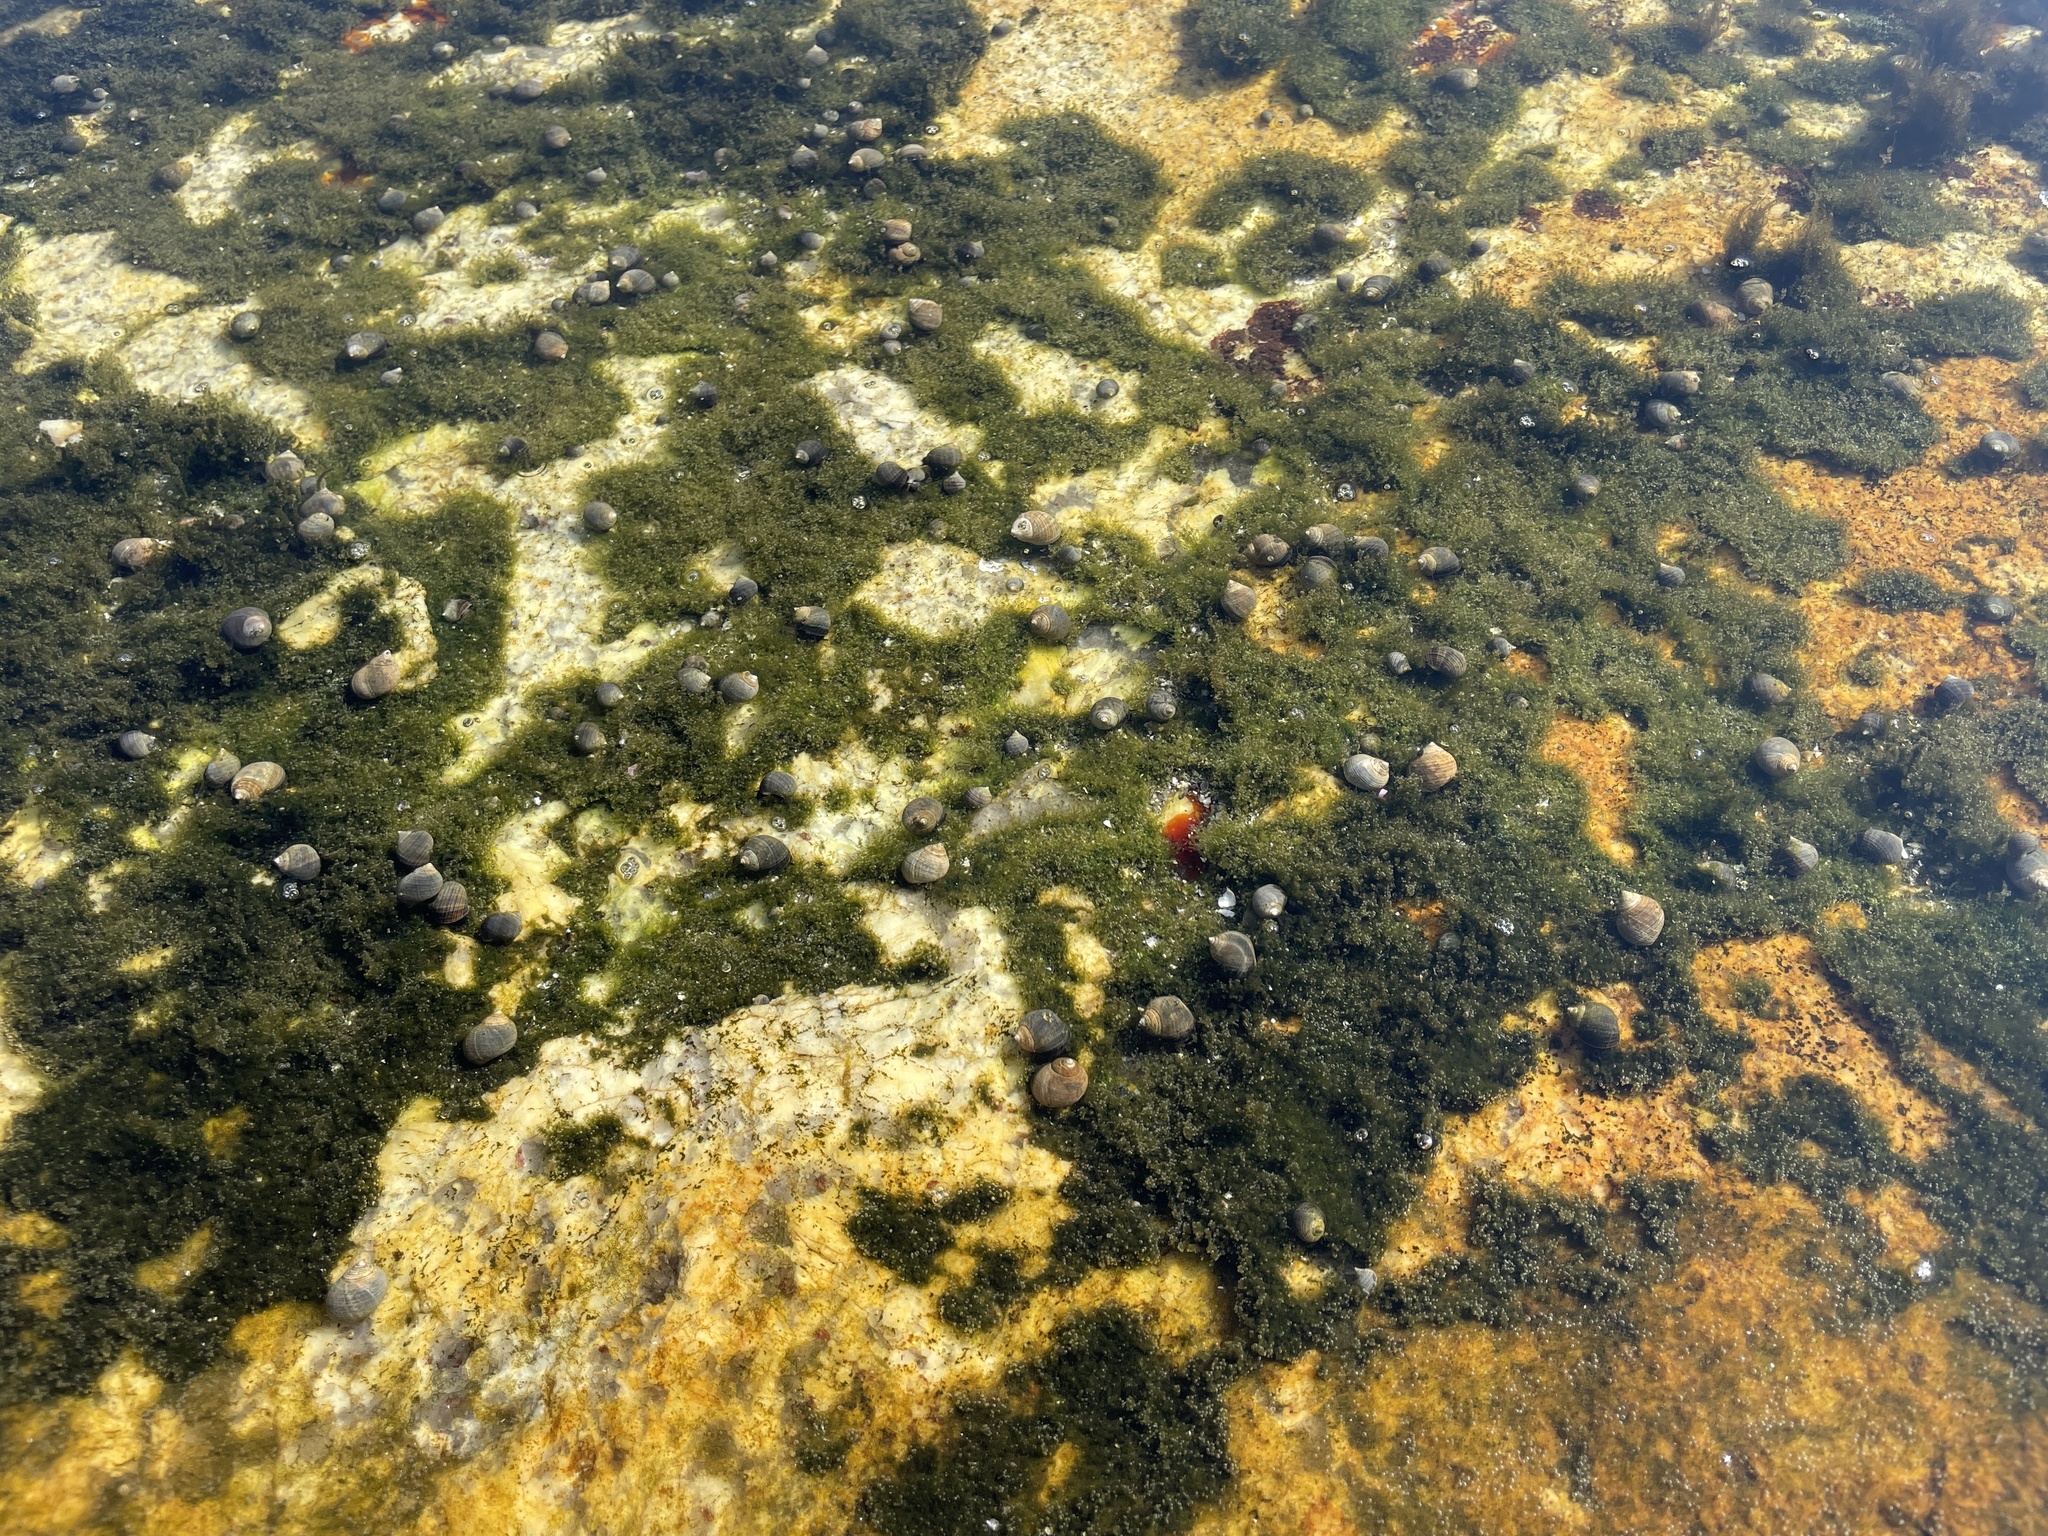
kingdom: Animalia
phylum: Mollusca
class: Gastropoda
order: Littorinimorpha
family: Littorinidae
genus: Littorina
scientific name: Littorina littorea
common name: Common periwinkle
